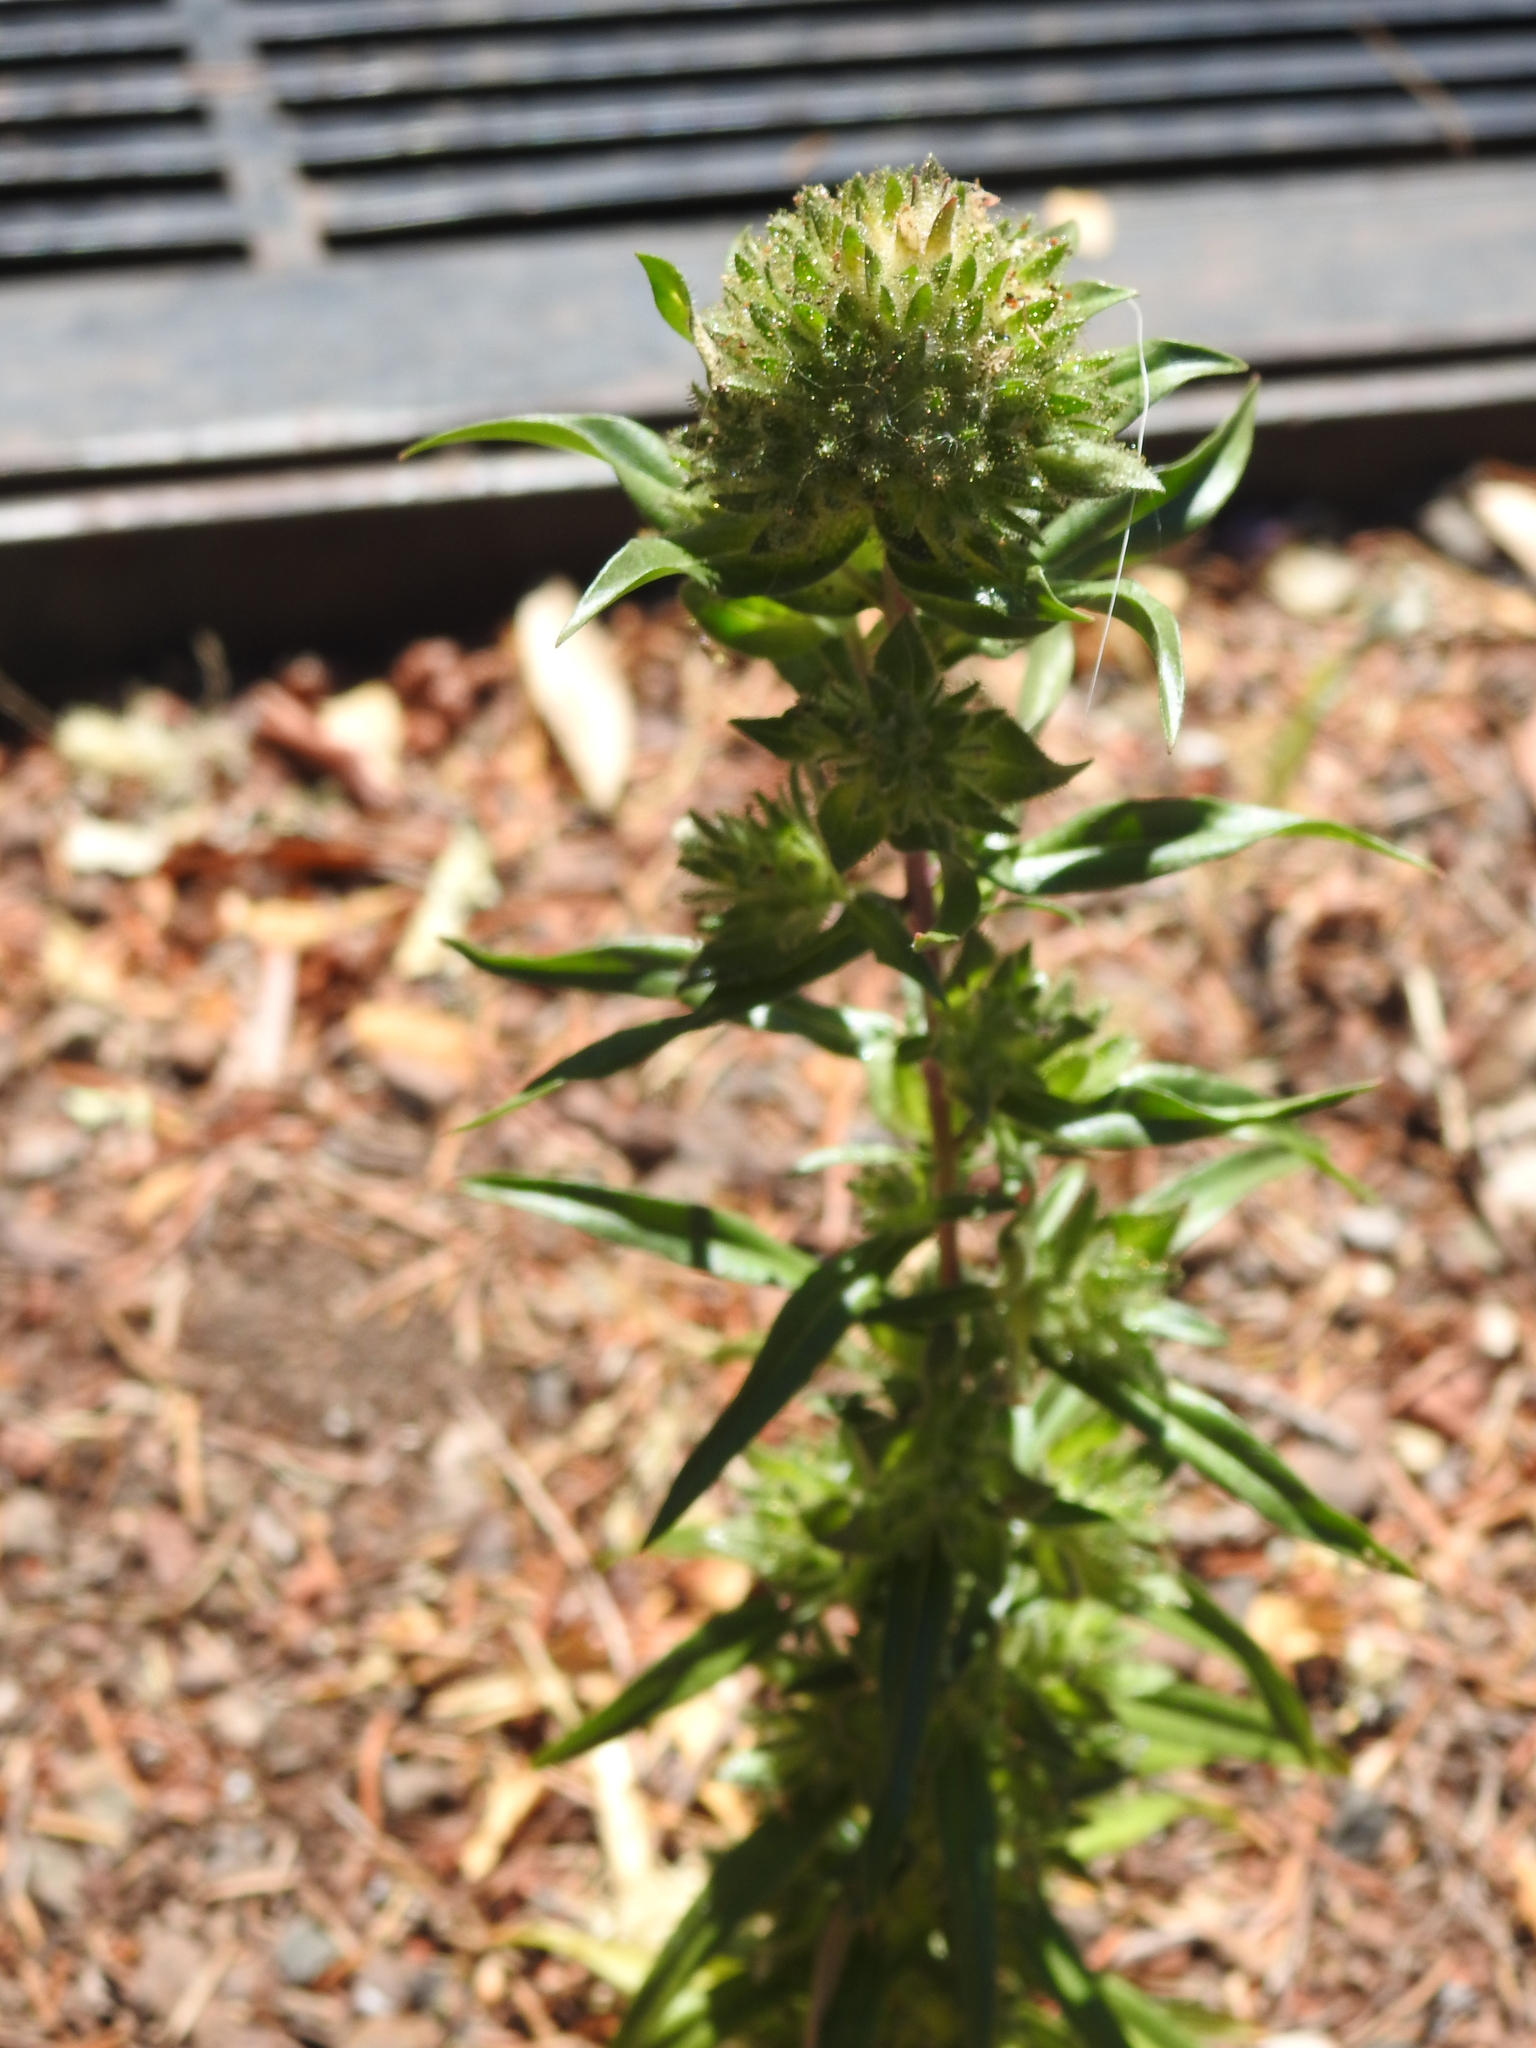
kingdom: Plantae
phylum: Tracheophyta
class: Magnoliopsida
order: Ericales
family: Polemoniaceae
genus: Collomia
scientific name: Collomia grandiflora
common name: California strawflower
